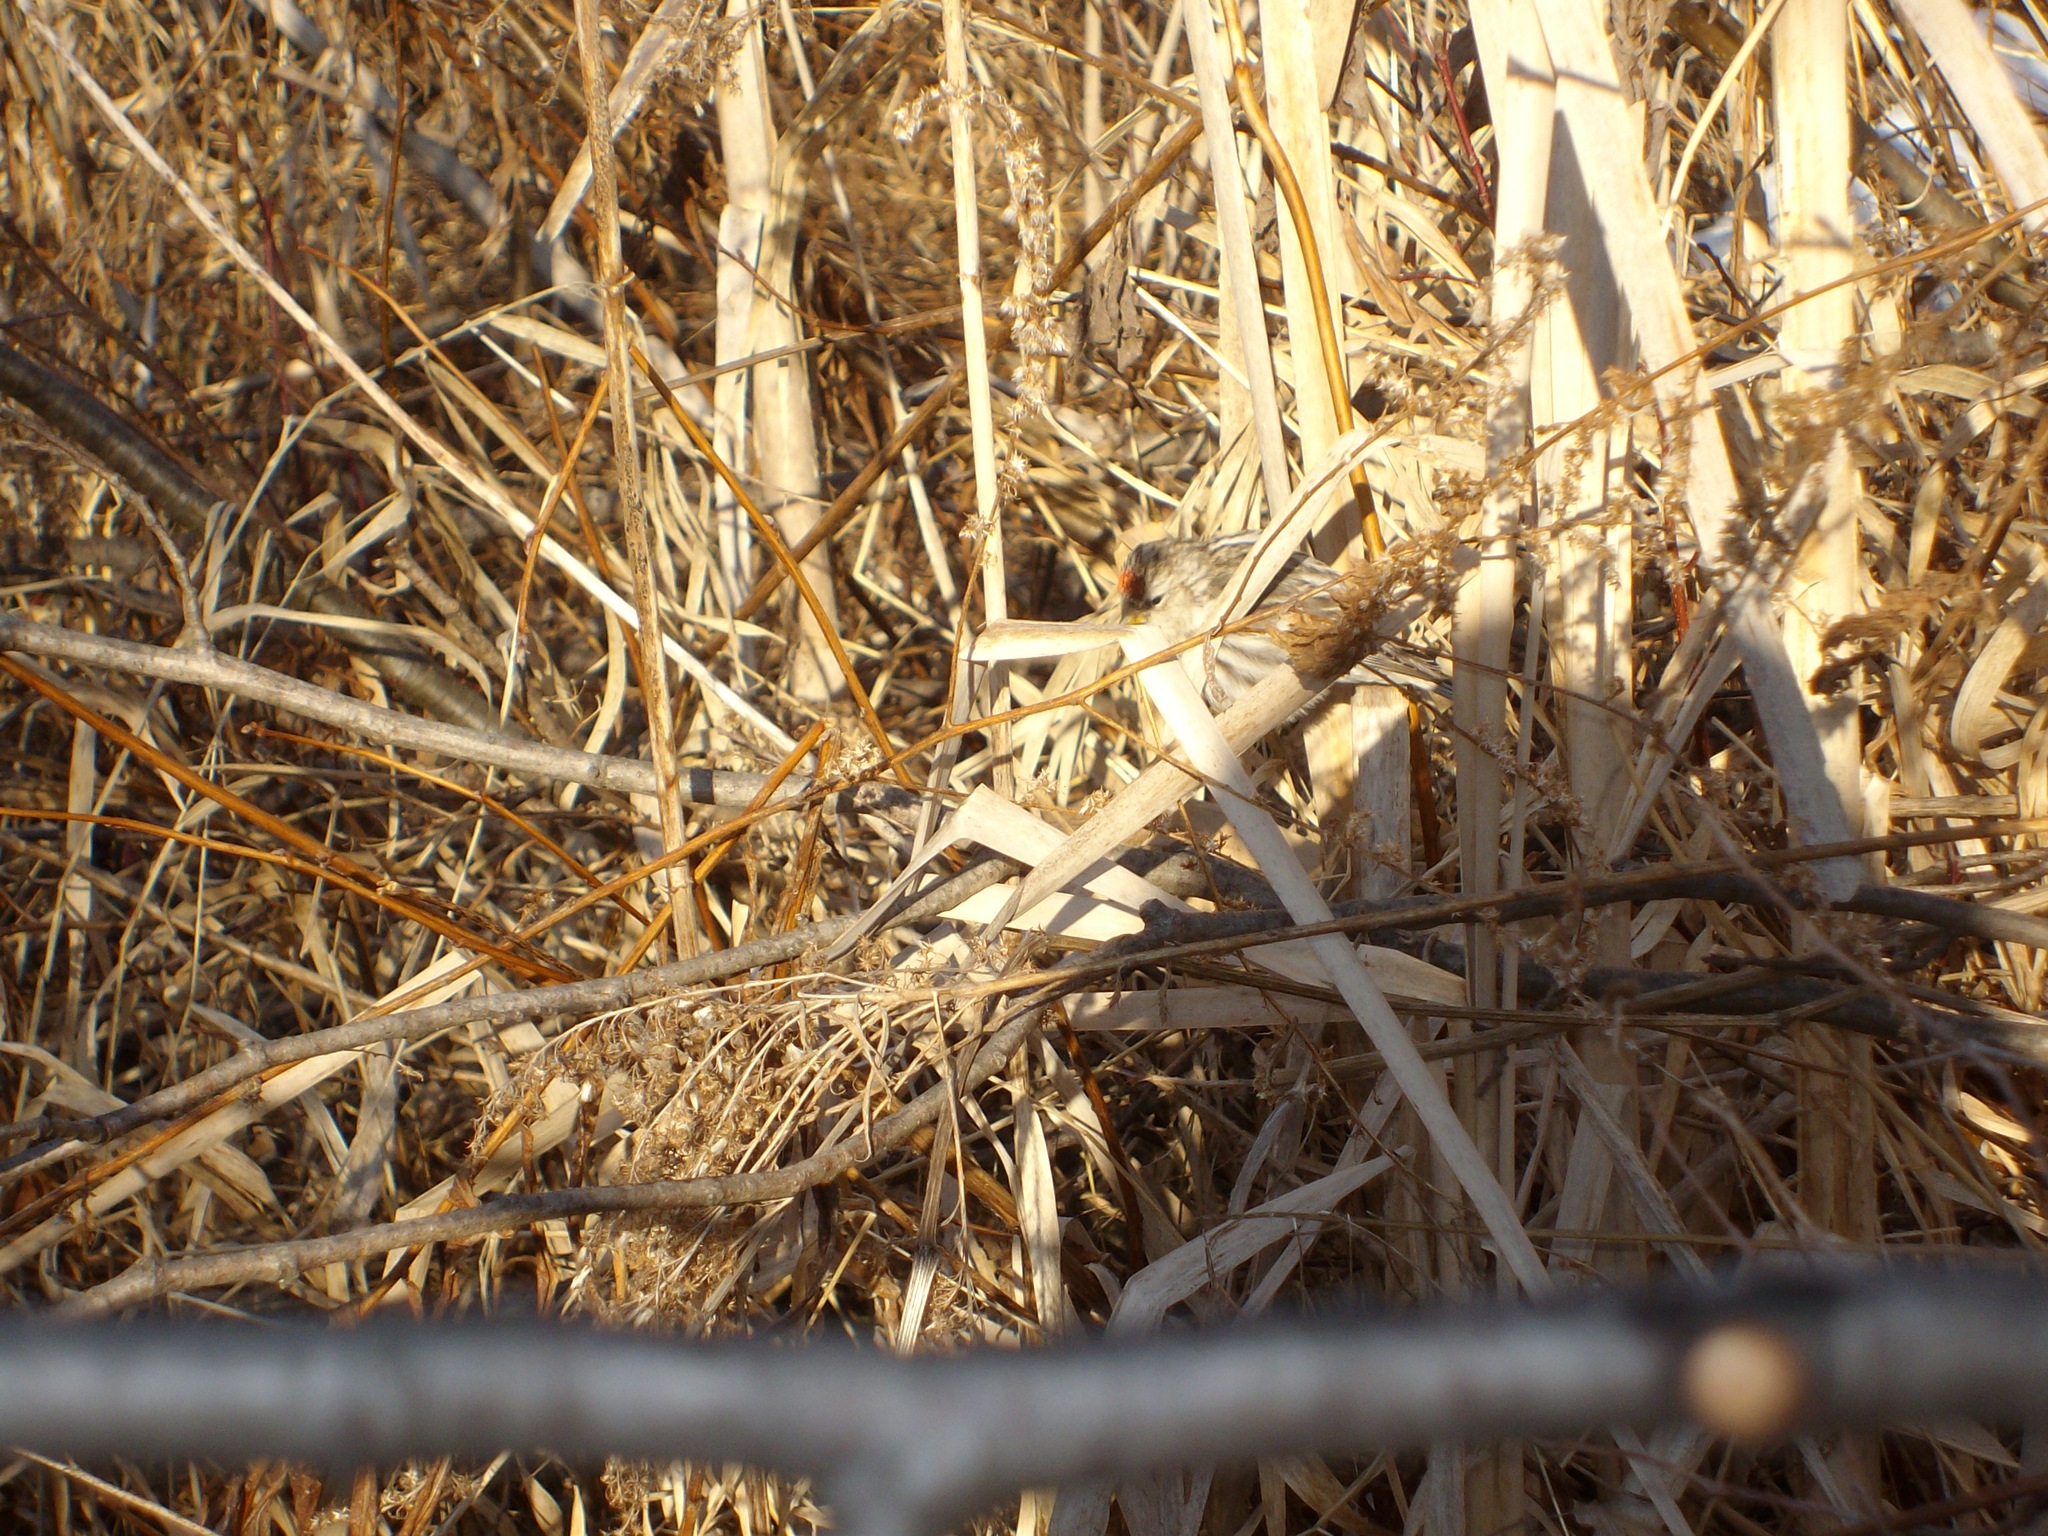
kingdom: Animalia
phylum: Chordata
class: Aves
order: Passeriformes
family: Fringillidae
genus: Acanthis
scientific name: Acanthis flammea
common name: Common redpoll
